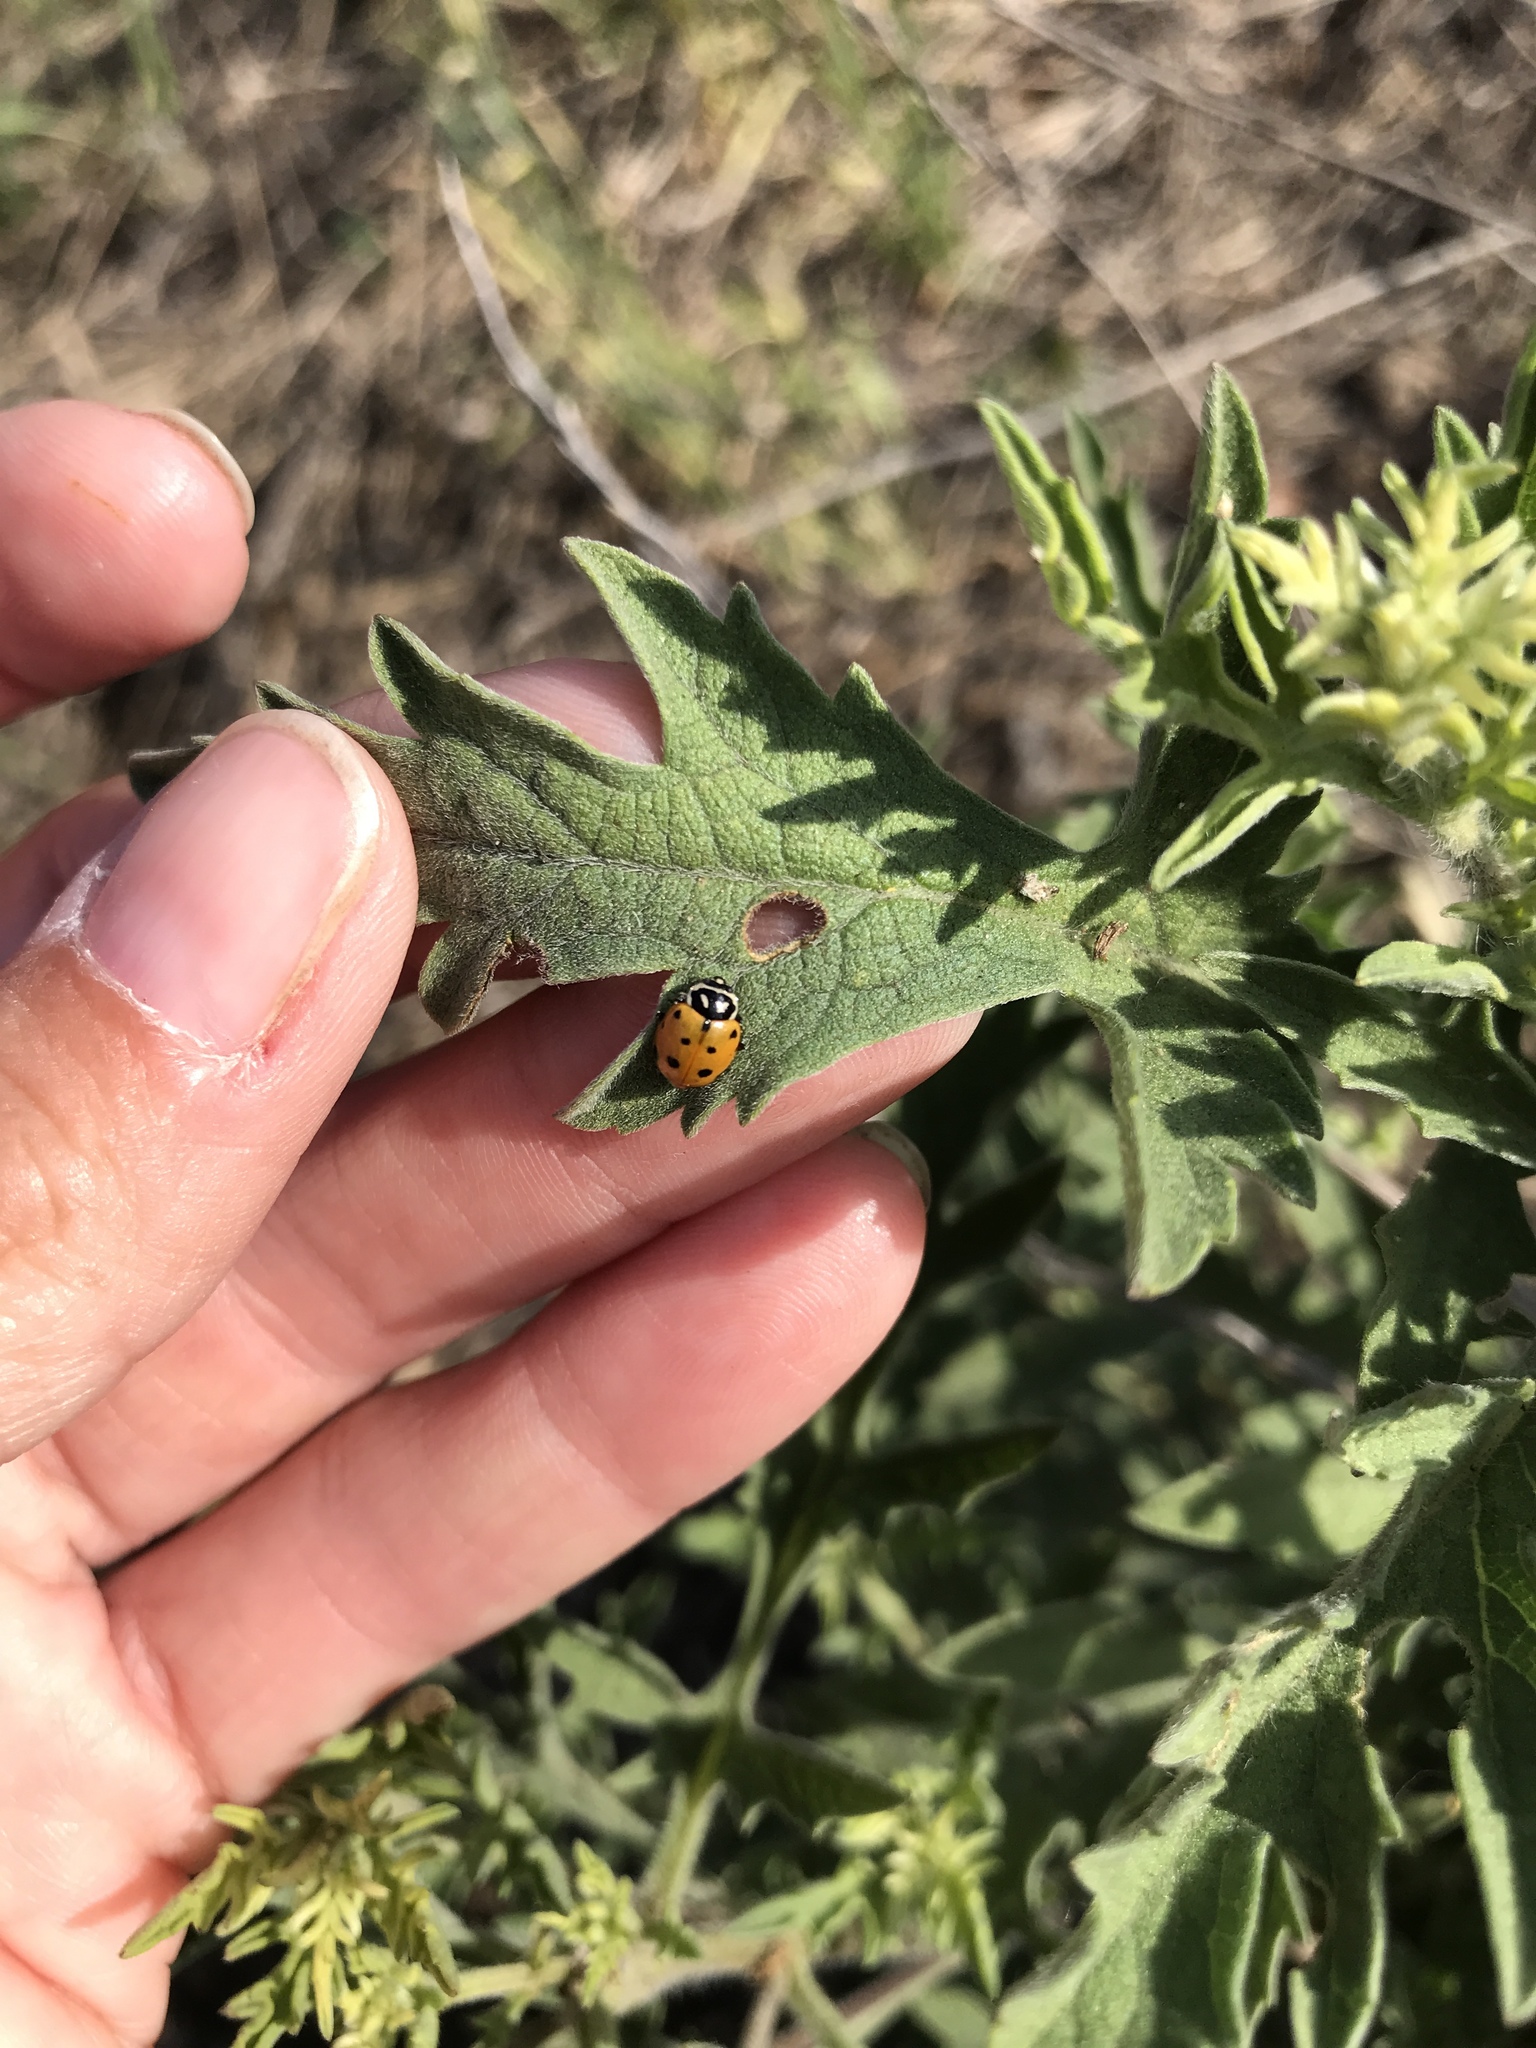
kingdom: Animalia
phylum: Arthropoda
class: Insecta
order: Coleoptera
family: Coccinellidae
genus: Hippodamia
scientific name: Hippodamia convergens
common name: Convergent lady beetle
